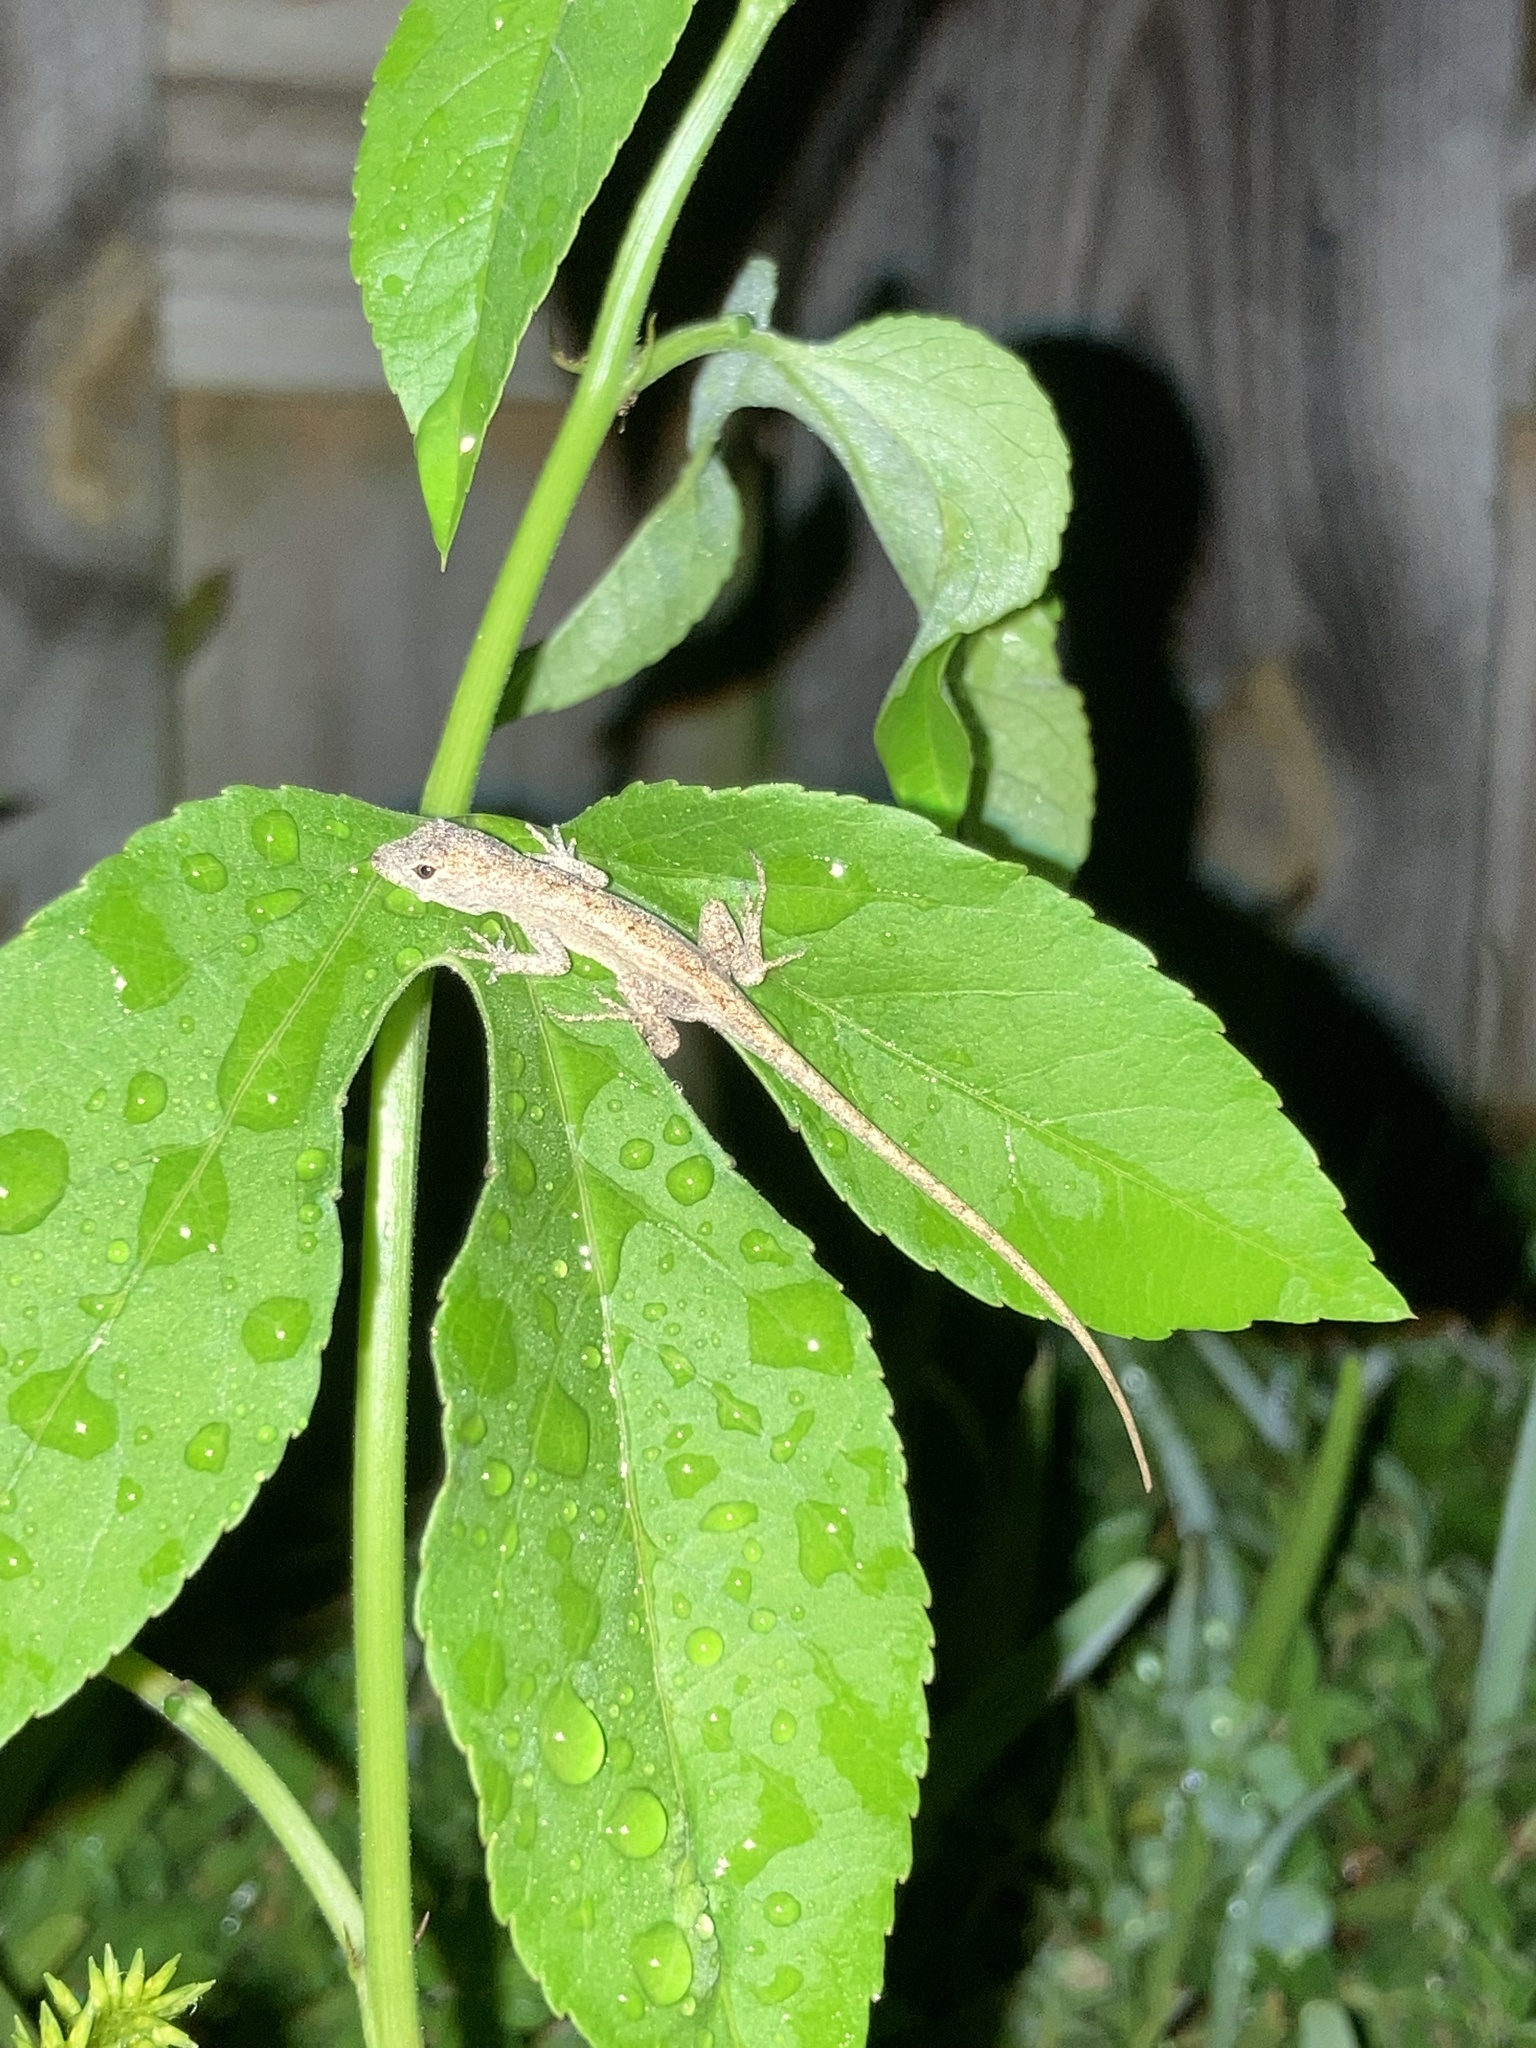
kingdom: Animalia
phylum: Chordata
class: Squamata
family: Dactyloidae
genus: Anolis
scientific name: Anolis sagrei
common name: Brown anole
